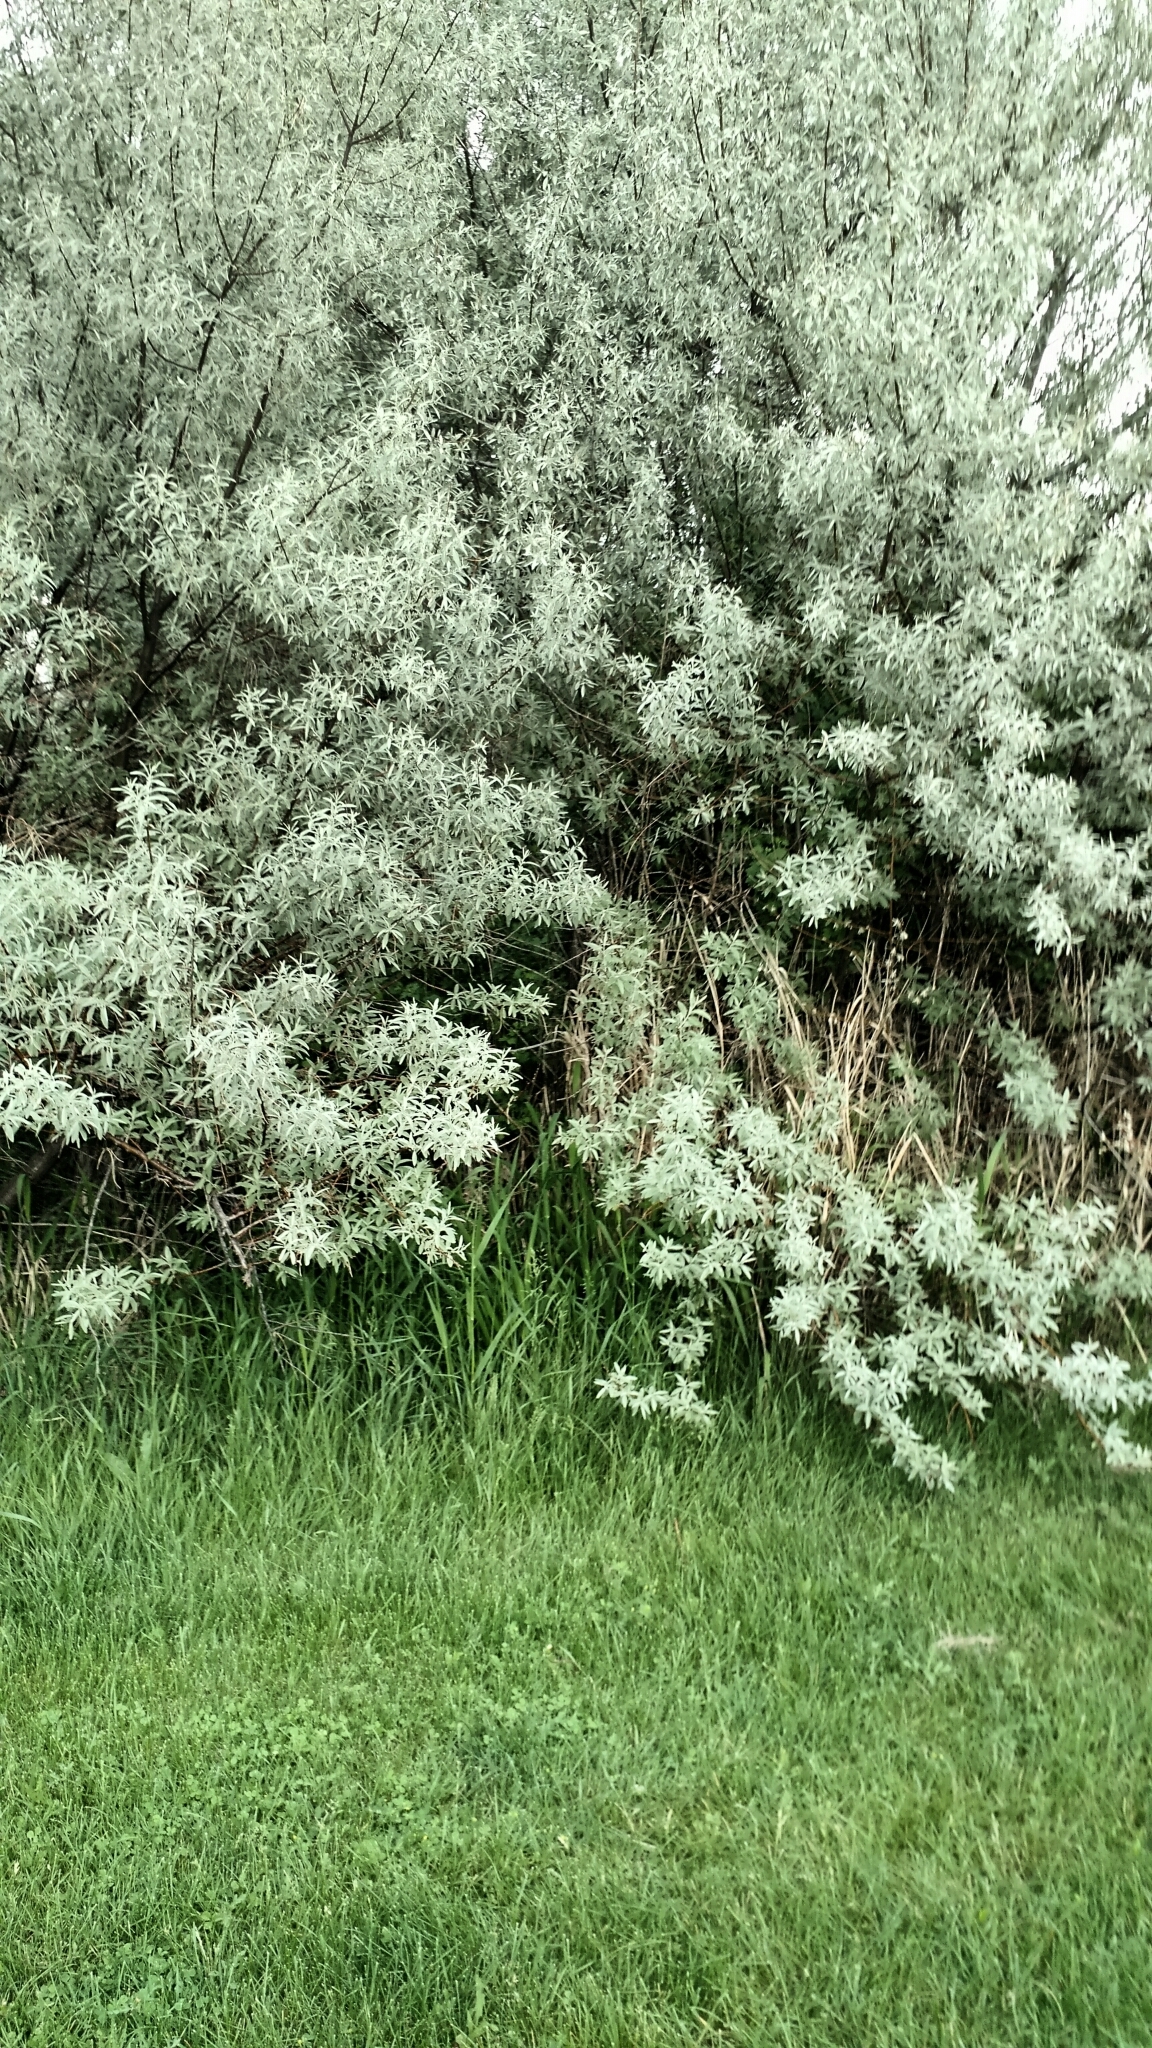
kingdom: Plantae
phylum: Tracheophyta
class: Magnoliopsida
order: Rosales
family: Elaeagnaceae
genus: Elaeagnus
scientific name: Elaeagnus angustifolia
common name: Russian olive
